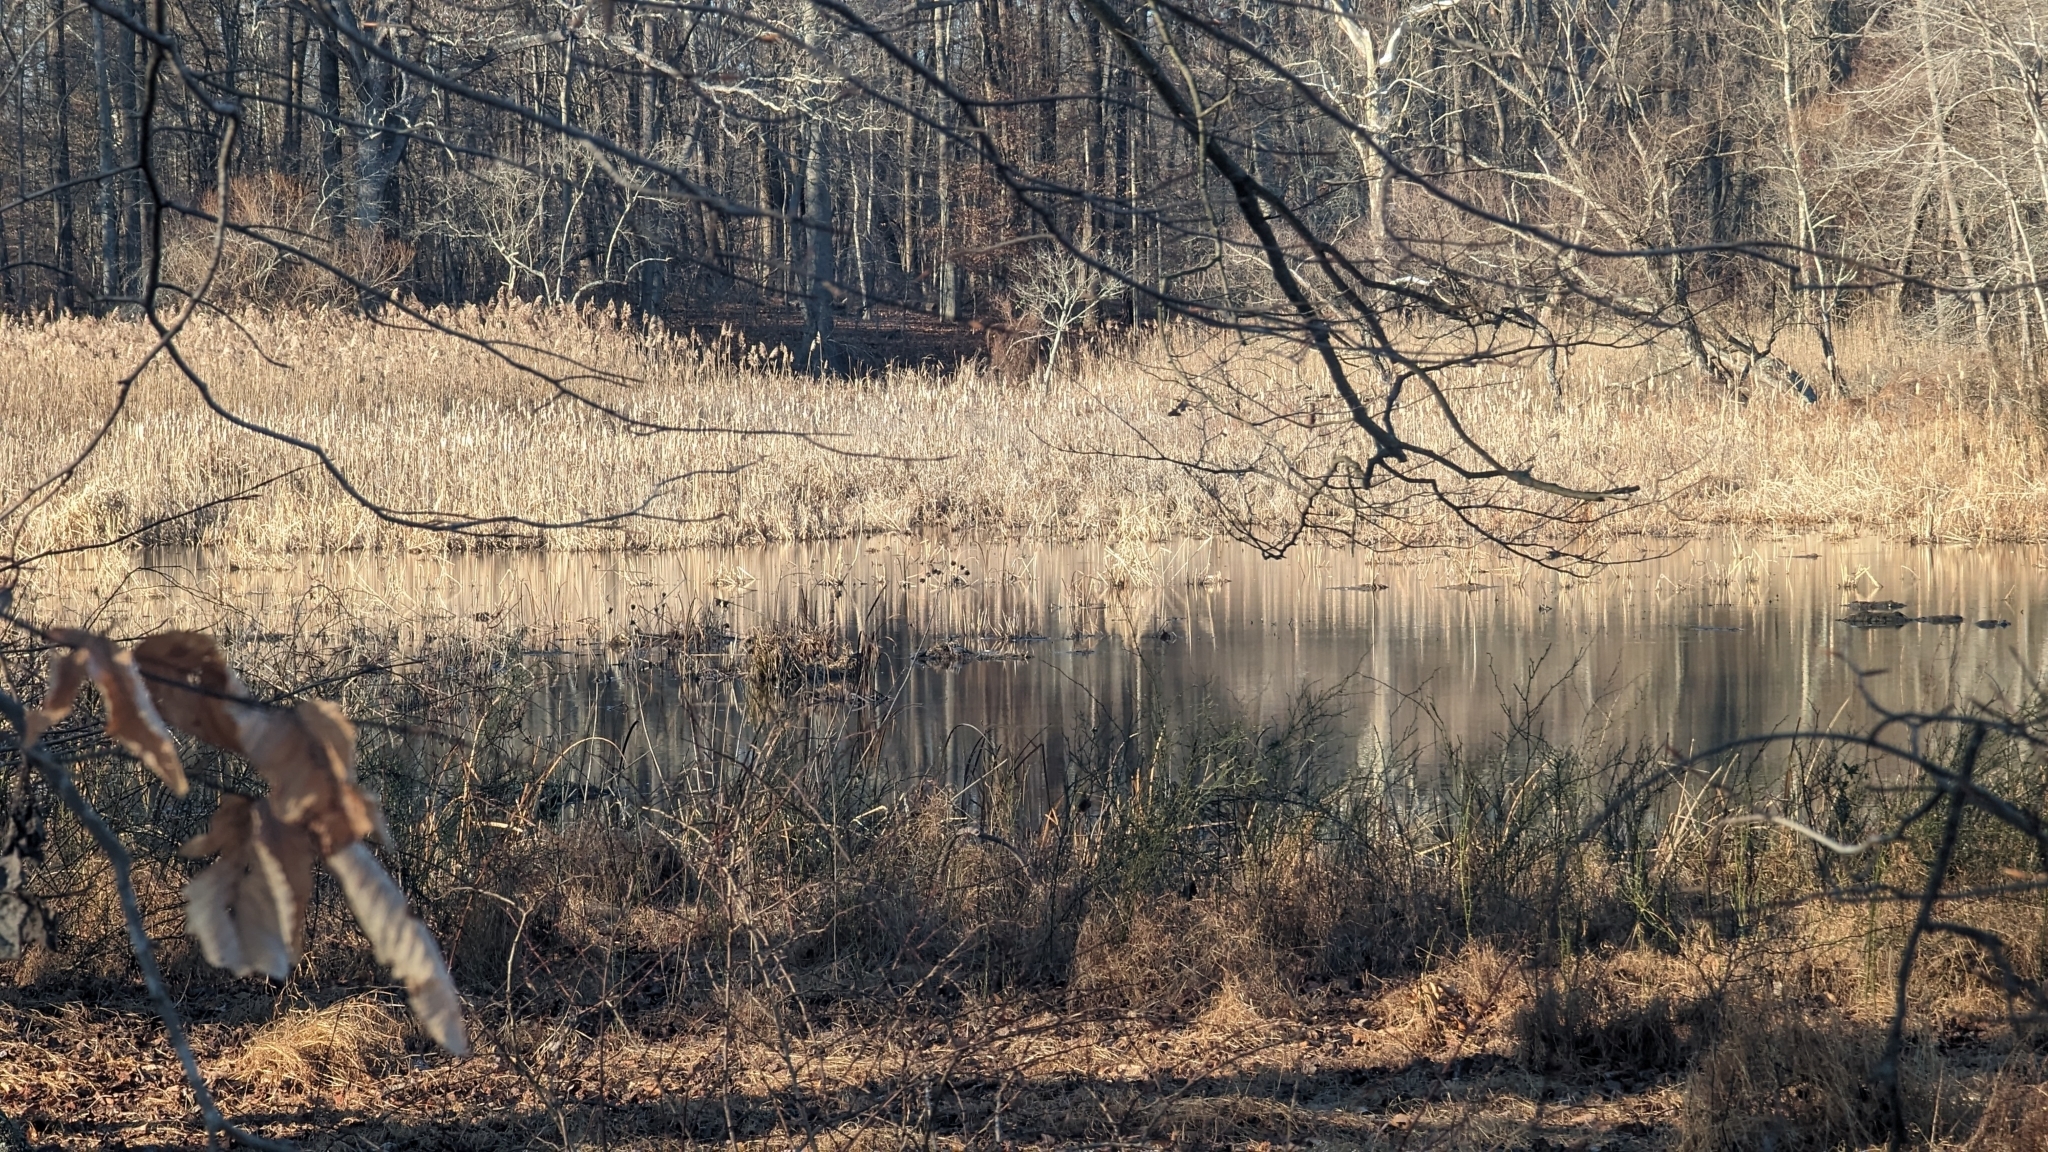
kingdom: Animalia
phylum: Chordata
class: Testudines
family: Emydidae
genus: Chrysemys
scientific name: Chrysemys picta
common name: Painted turtle
